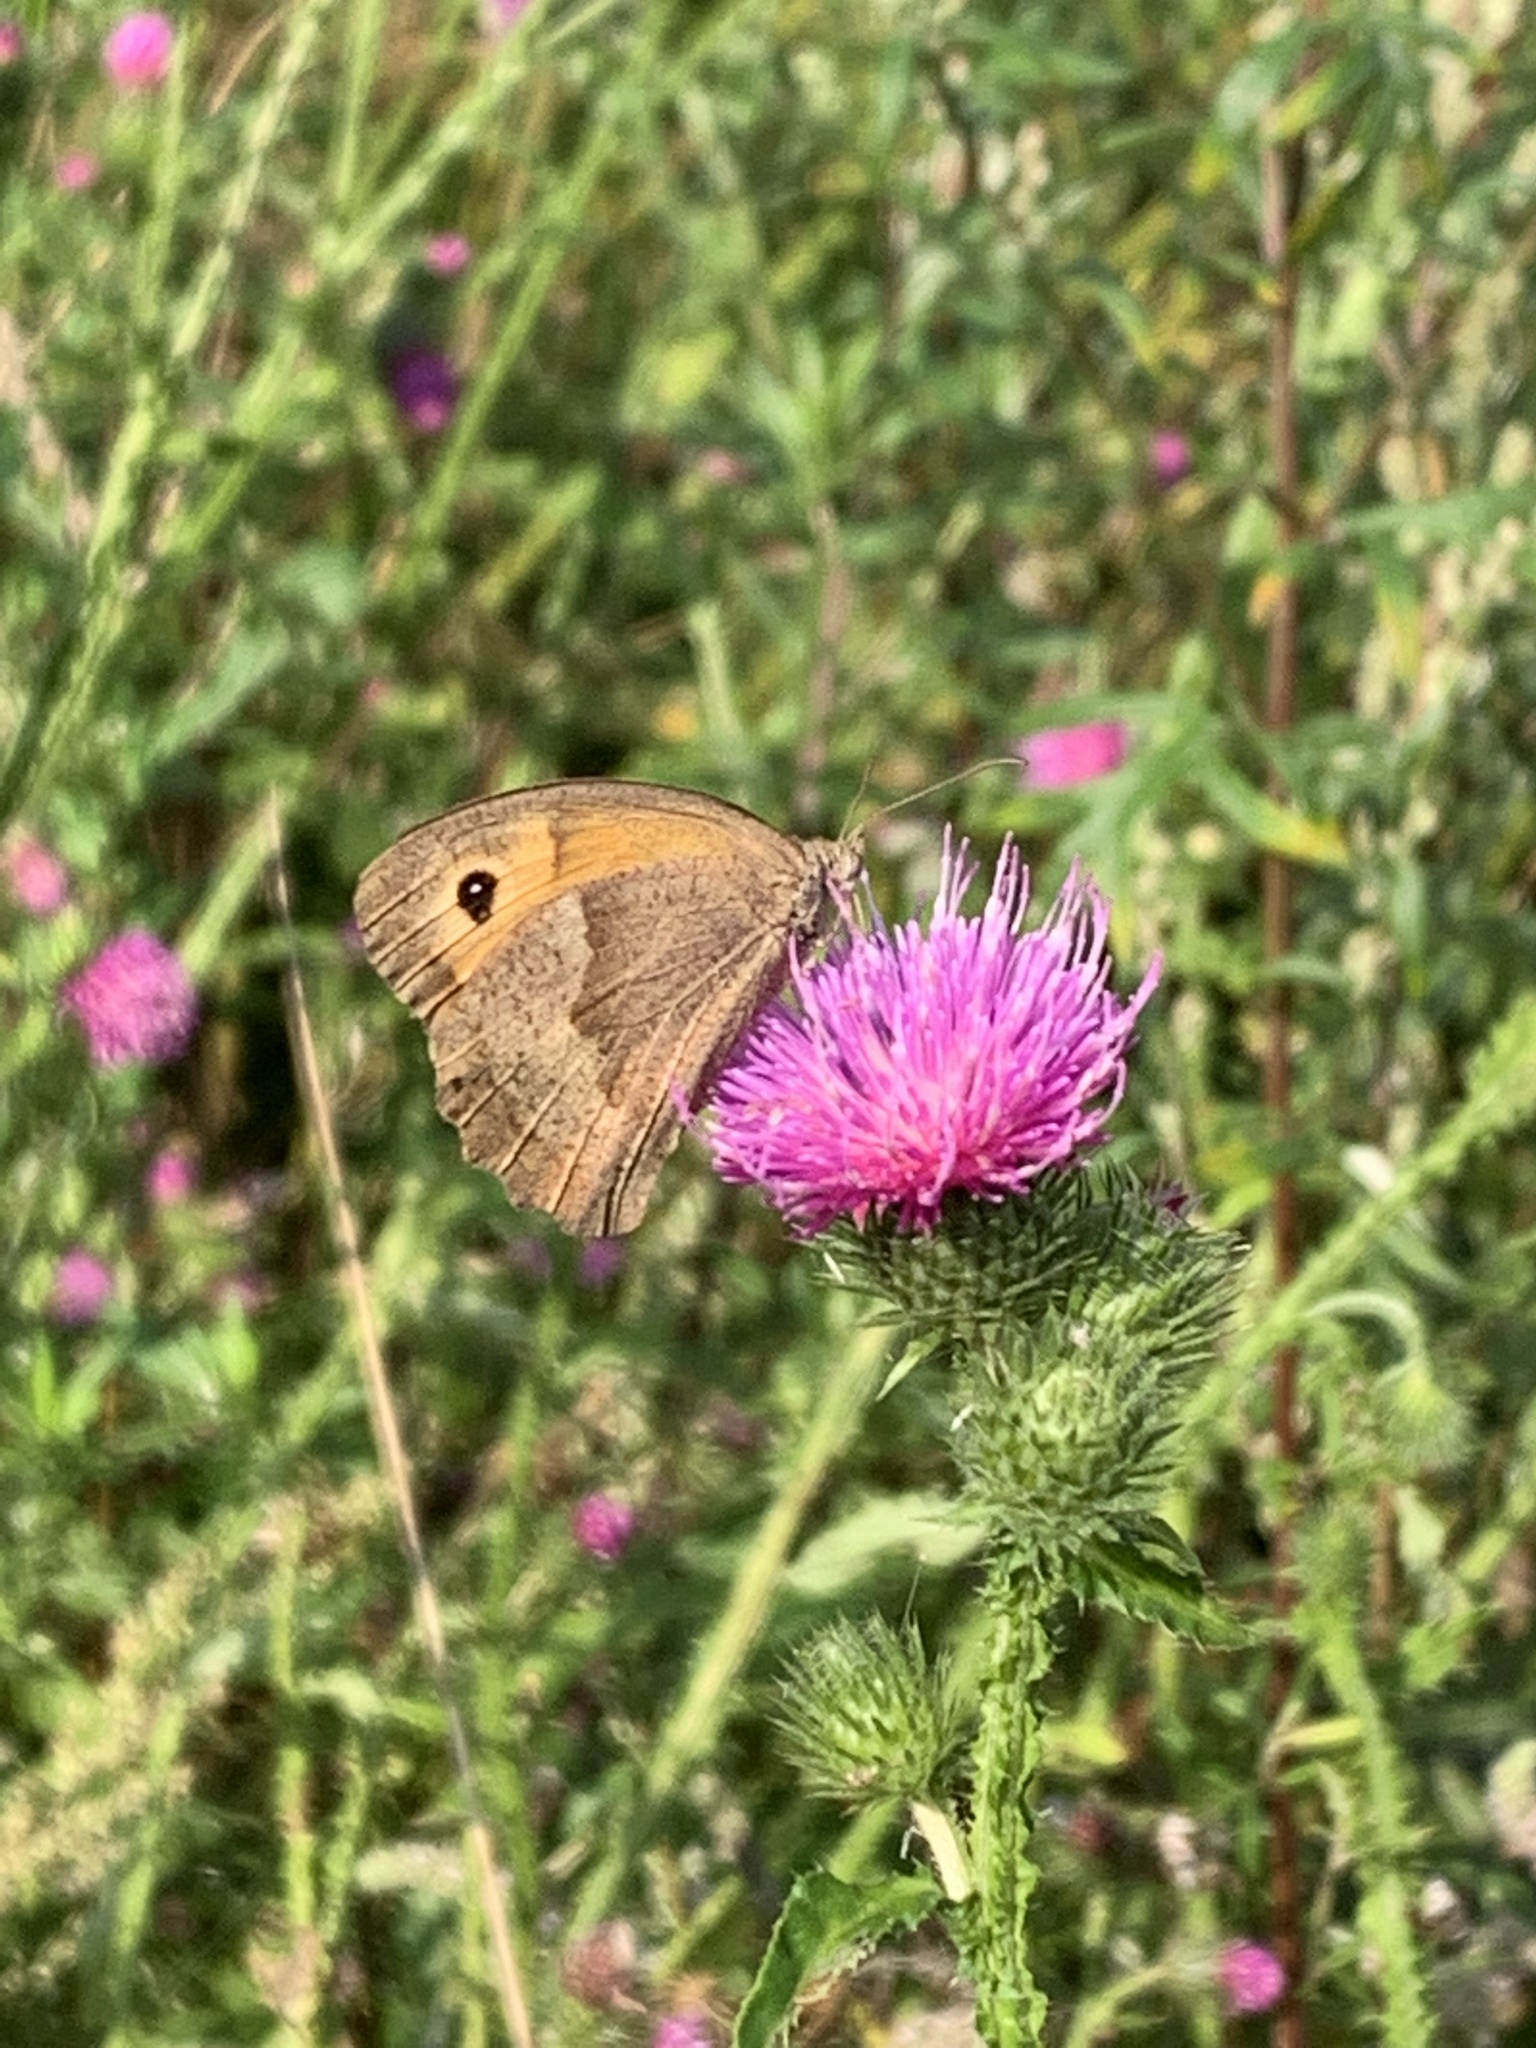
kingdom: Animalia
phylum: Arthropoda
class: Insecta
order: Lepidoptera
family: Nymphalidae
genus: Maniola
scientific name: Maniola jurtina
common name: Meadow brown
